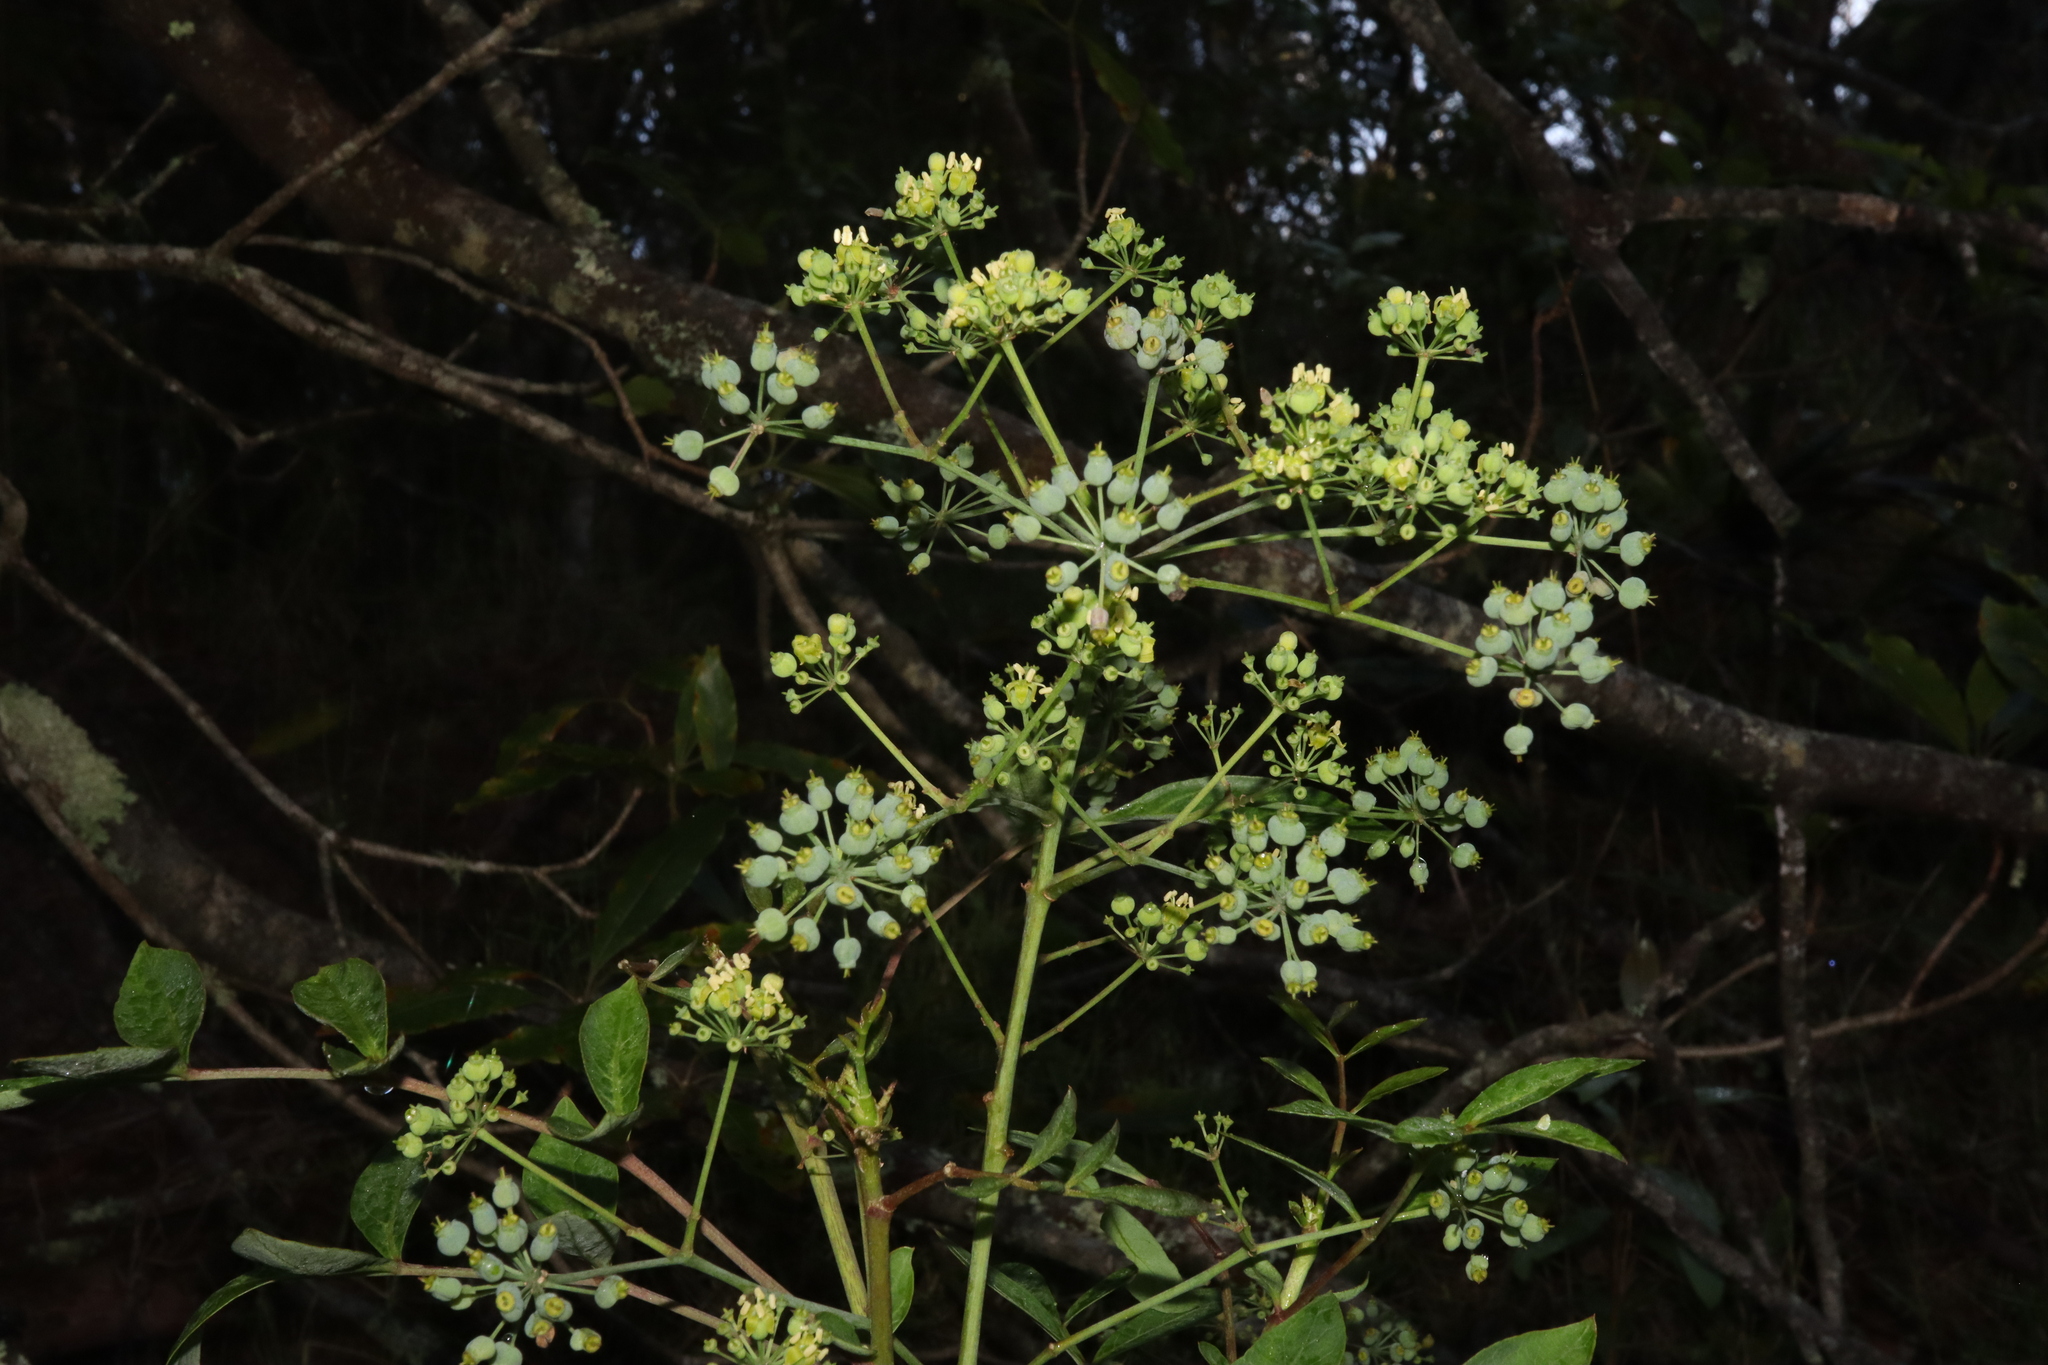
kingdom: Plantae
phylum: Tracheophyta
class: Magnoliopsida
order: Apiales
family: Araliaceae
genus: Polyscias
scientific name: Polyscias sambucifolia
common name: Elderberry-ash
